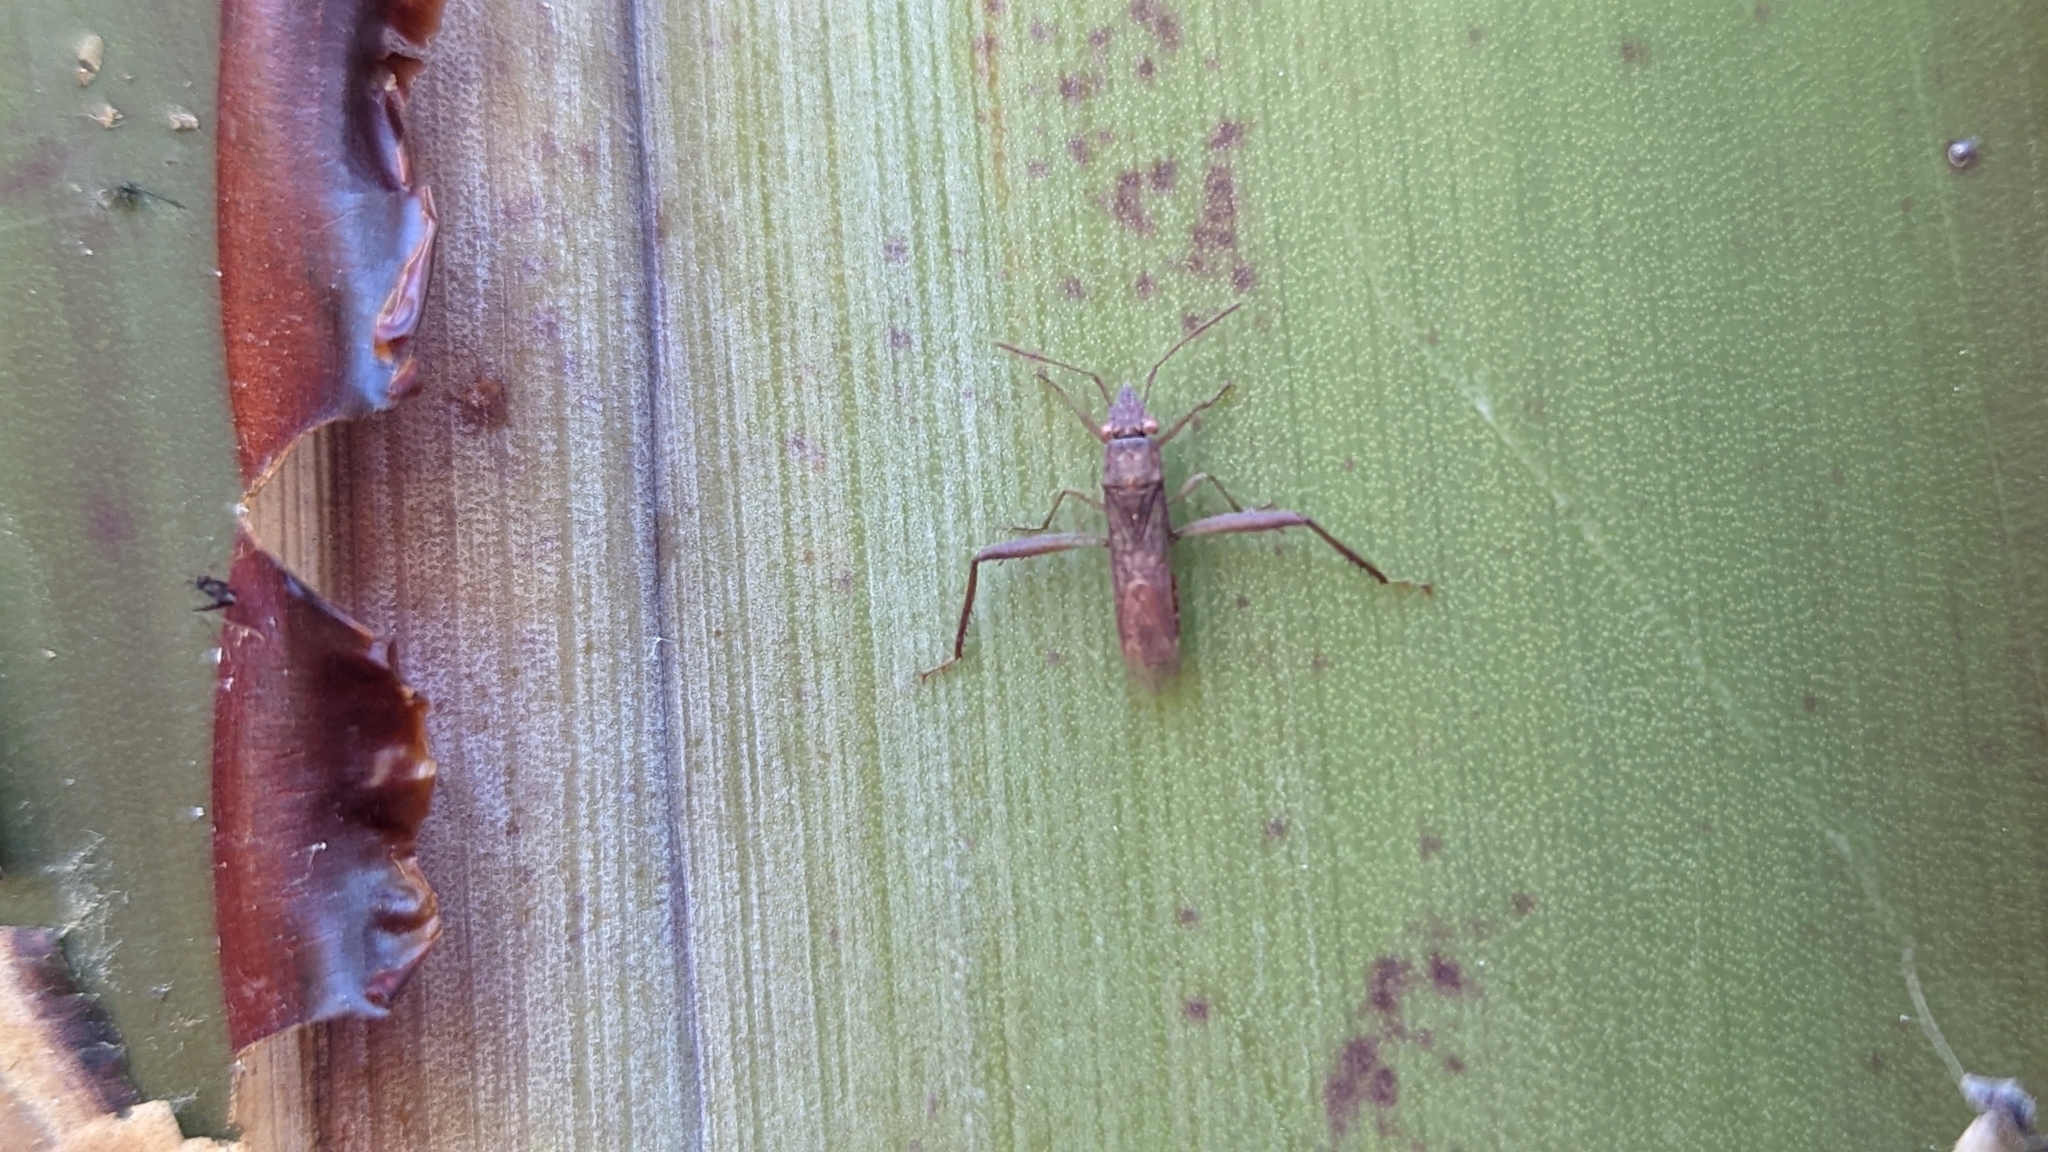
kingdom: Animalia
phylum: Arthropoda
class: Insecta
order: Hemiptera
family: Alydidae
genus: Nemausus
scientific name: Nemausus sordidatus
